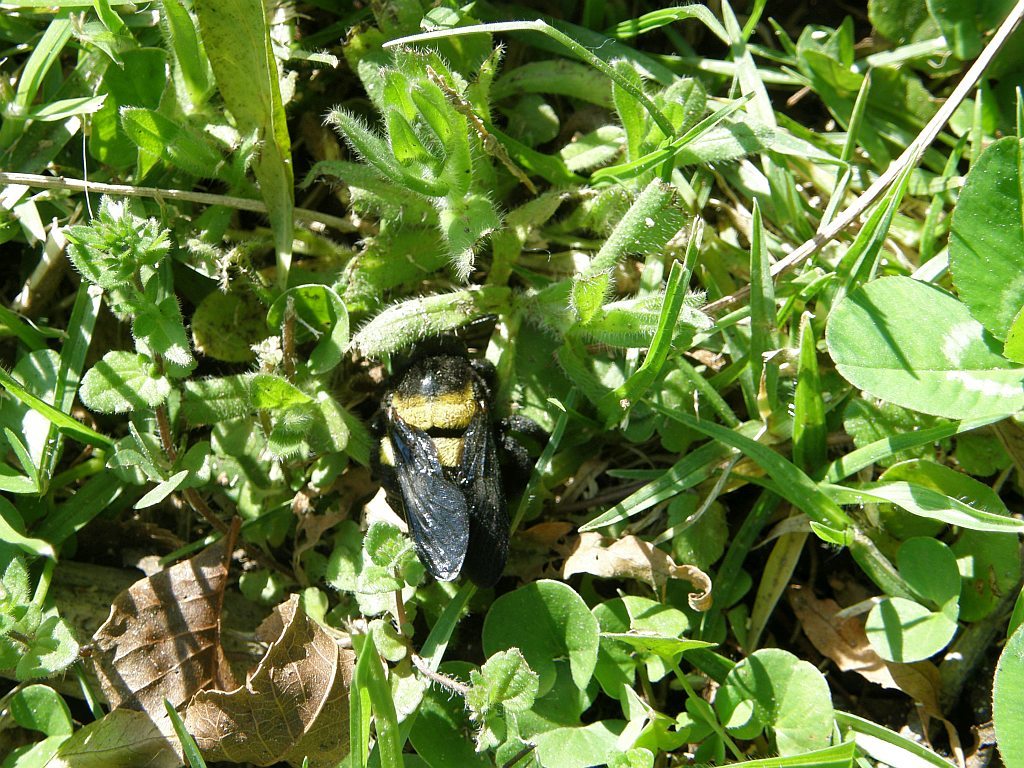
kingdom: Animalia
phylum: Arthropoda
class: Insecta
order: Hymenoptera
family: Apidae
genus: Xylocopa
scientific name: Xylocopa caffra
